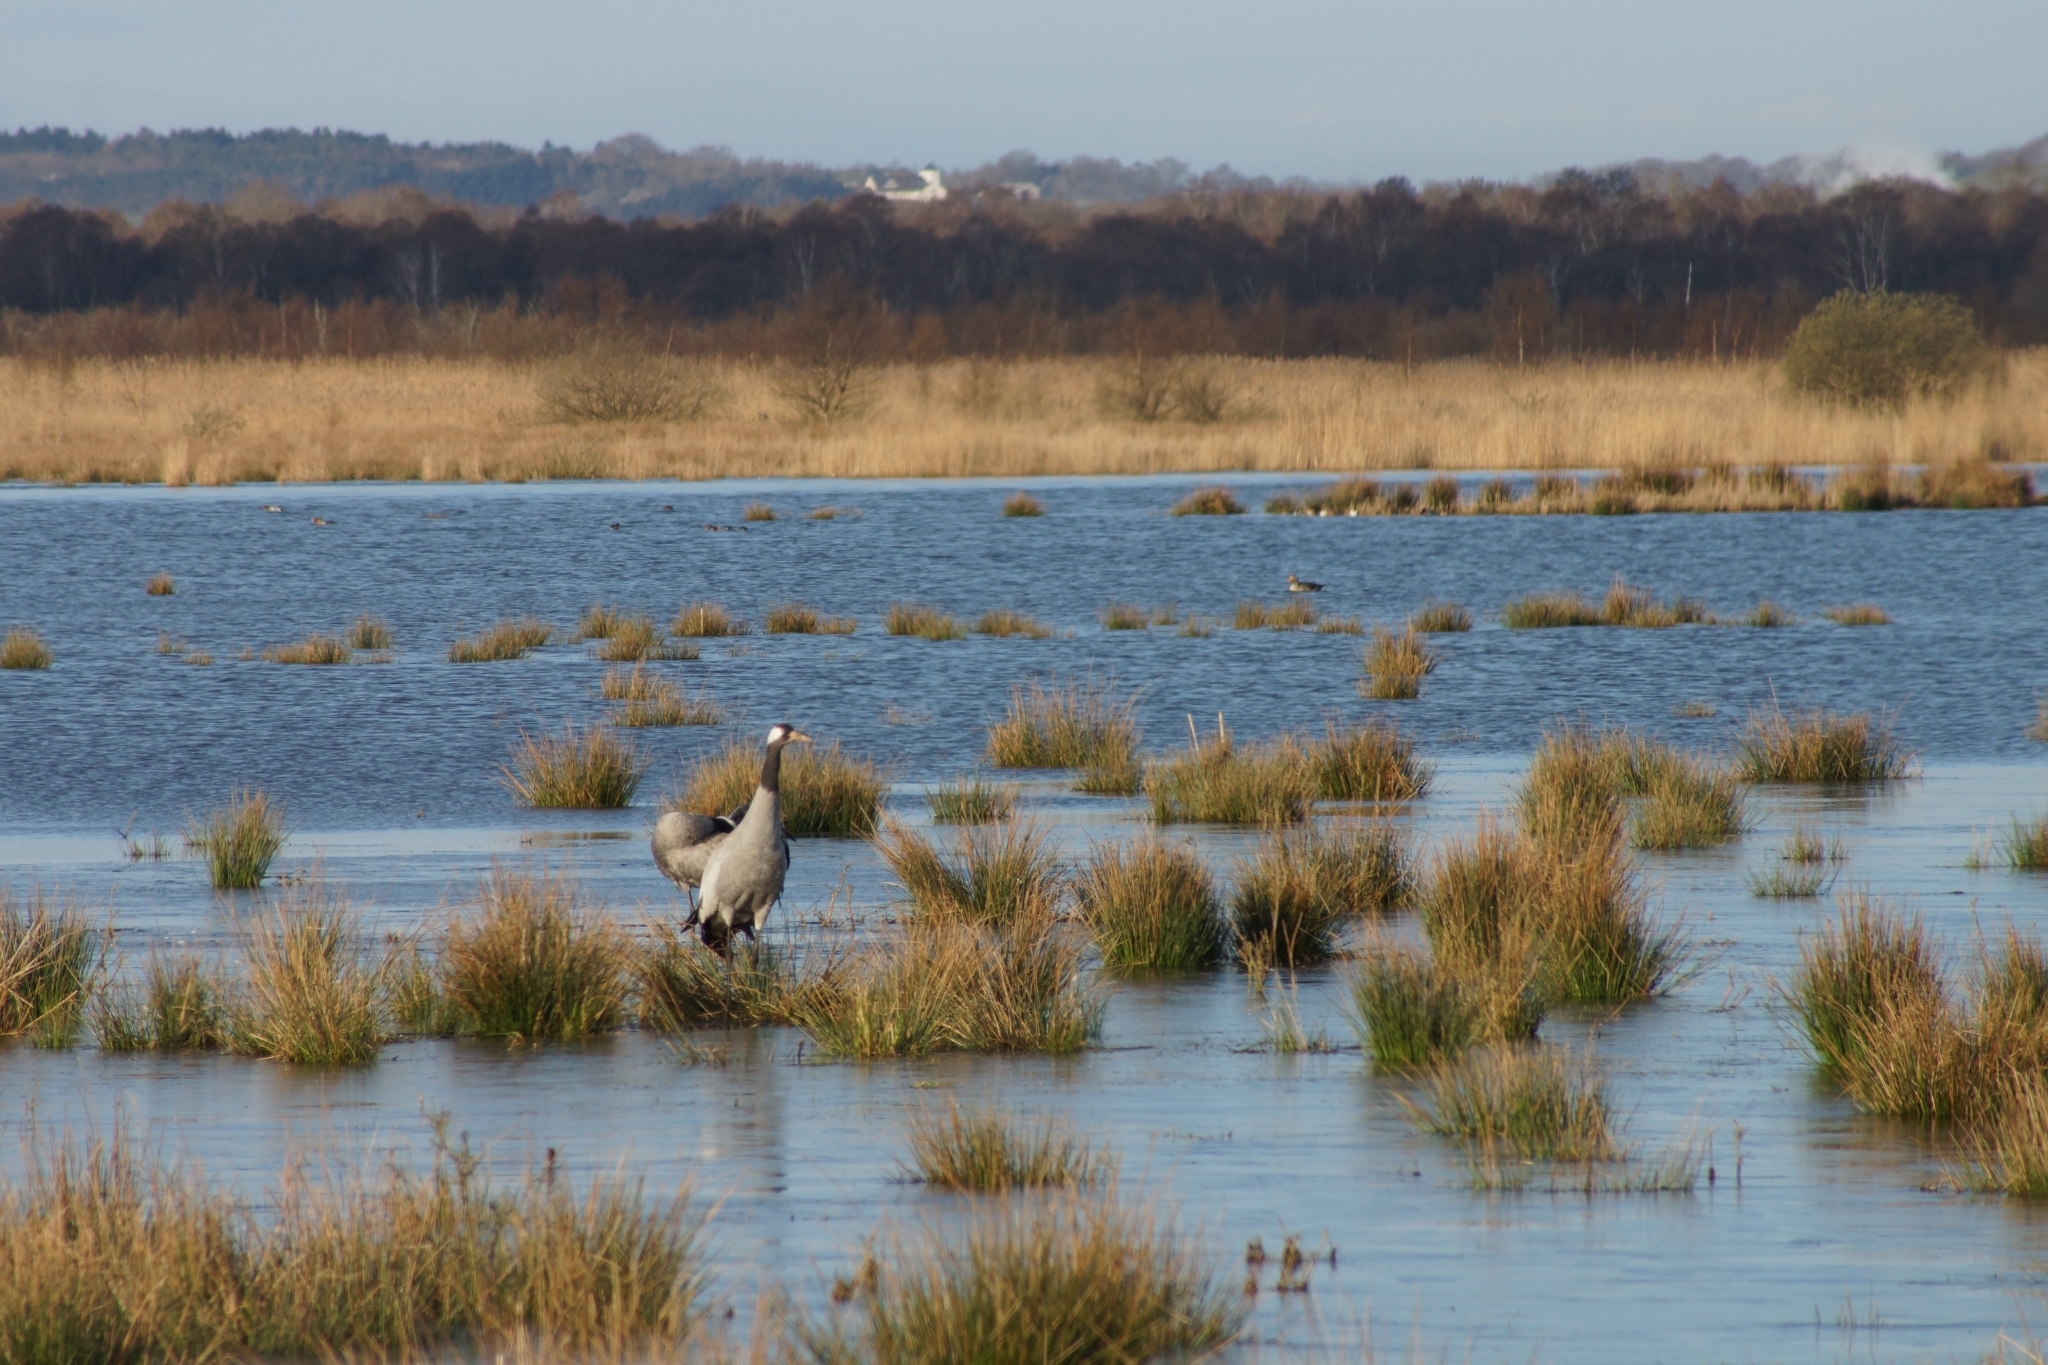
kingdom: Animalia
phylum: Chordata
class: Aves
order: Gruiformes
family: Gruidae
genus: Grus
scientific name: Grus grus
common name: Common crane
